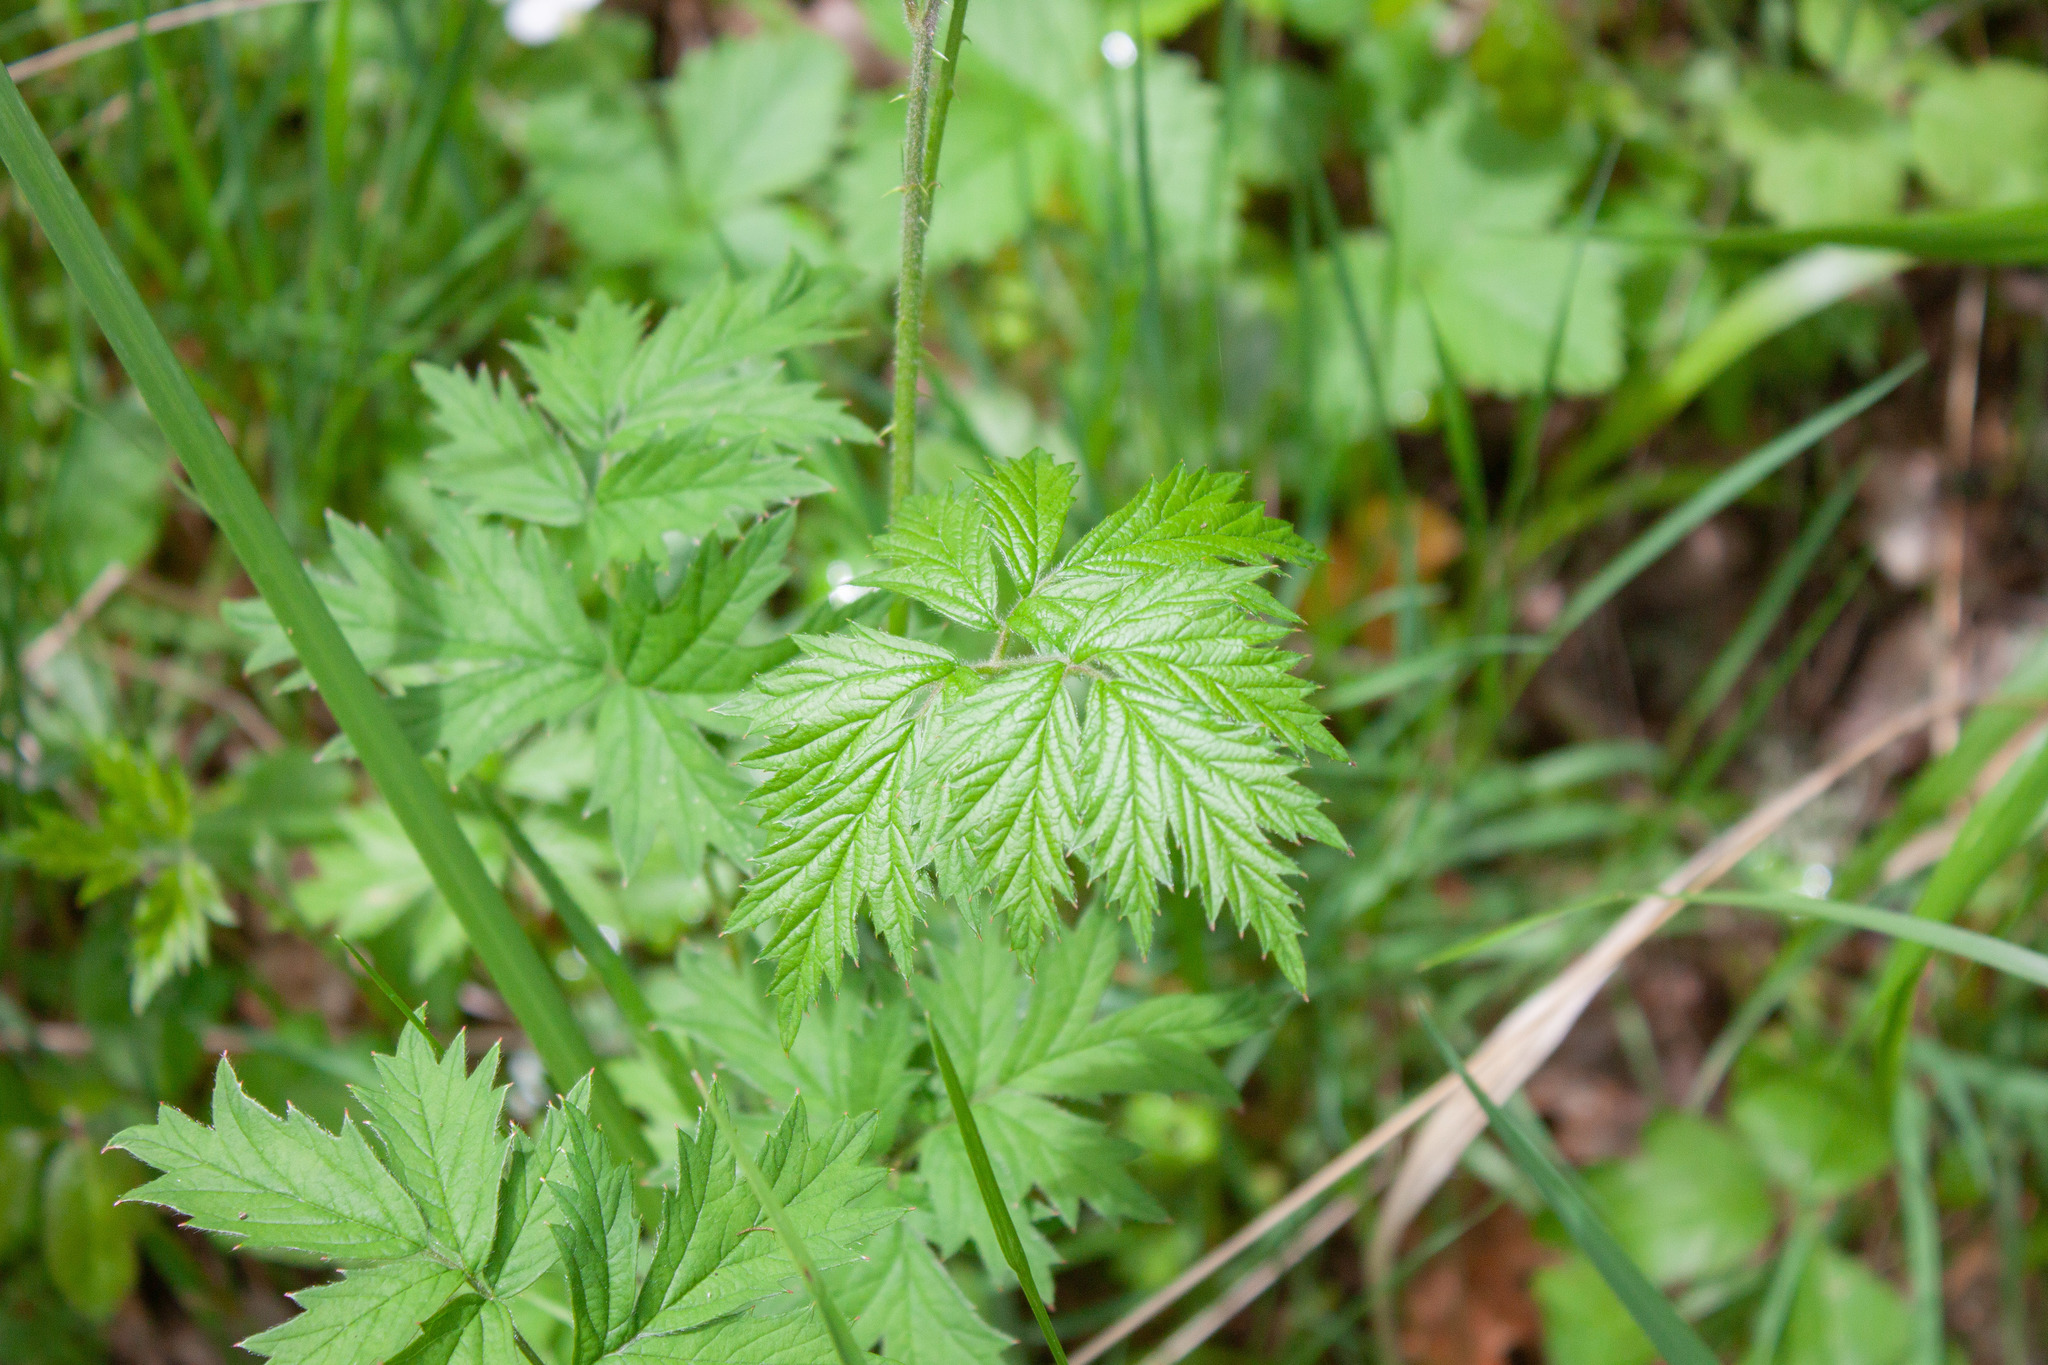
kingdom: Plantae
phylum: Tracheophyta
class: Magnoliopsida
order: Rosales
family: Rosaceae
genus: Rubus
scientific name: Rubus laciniatus
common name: Evergreen blackberry
